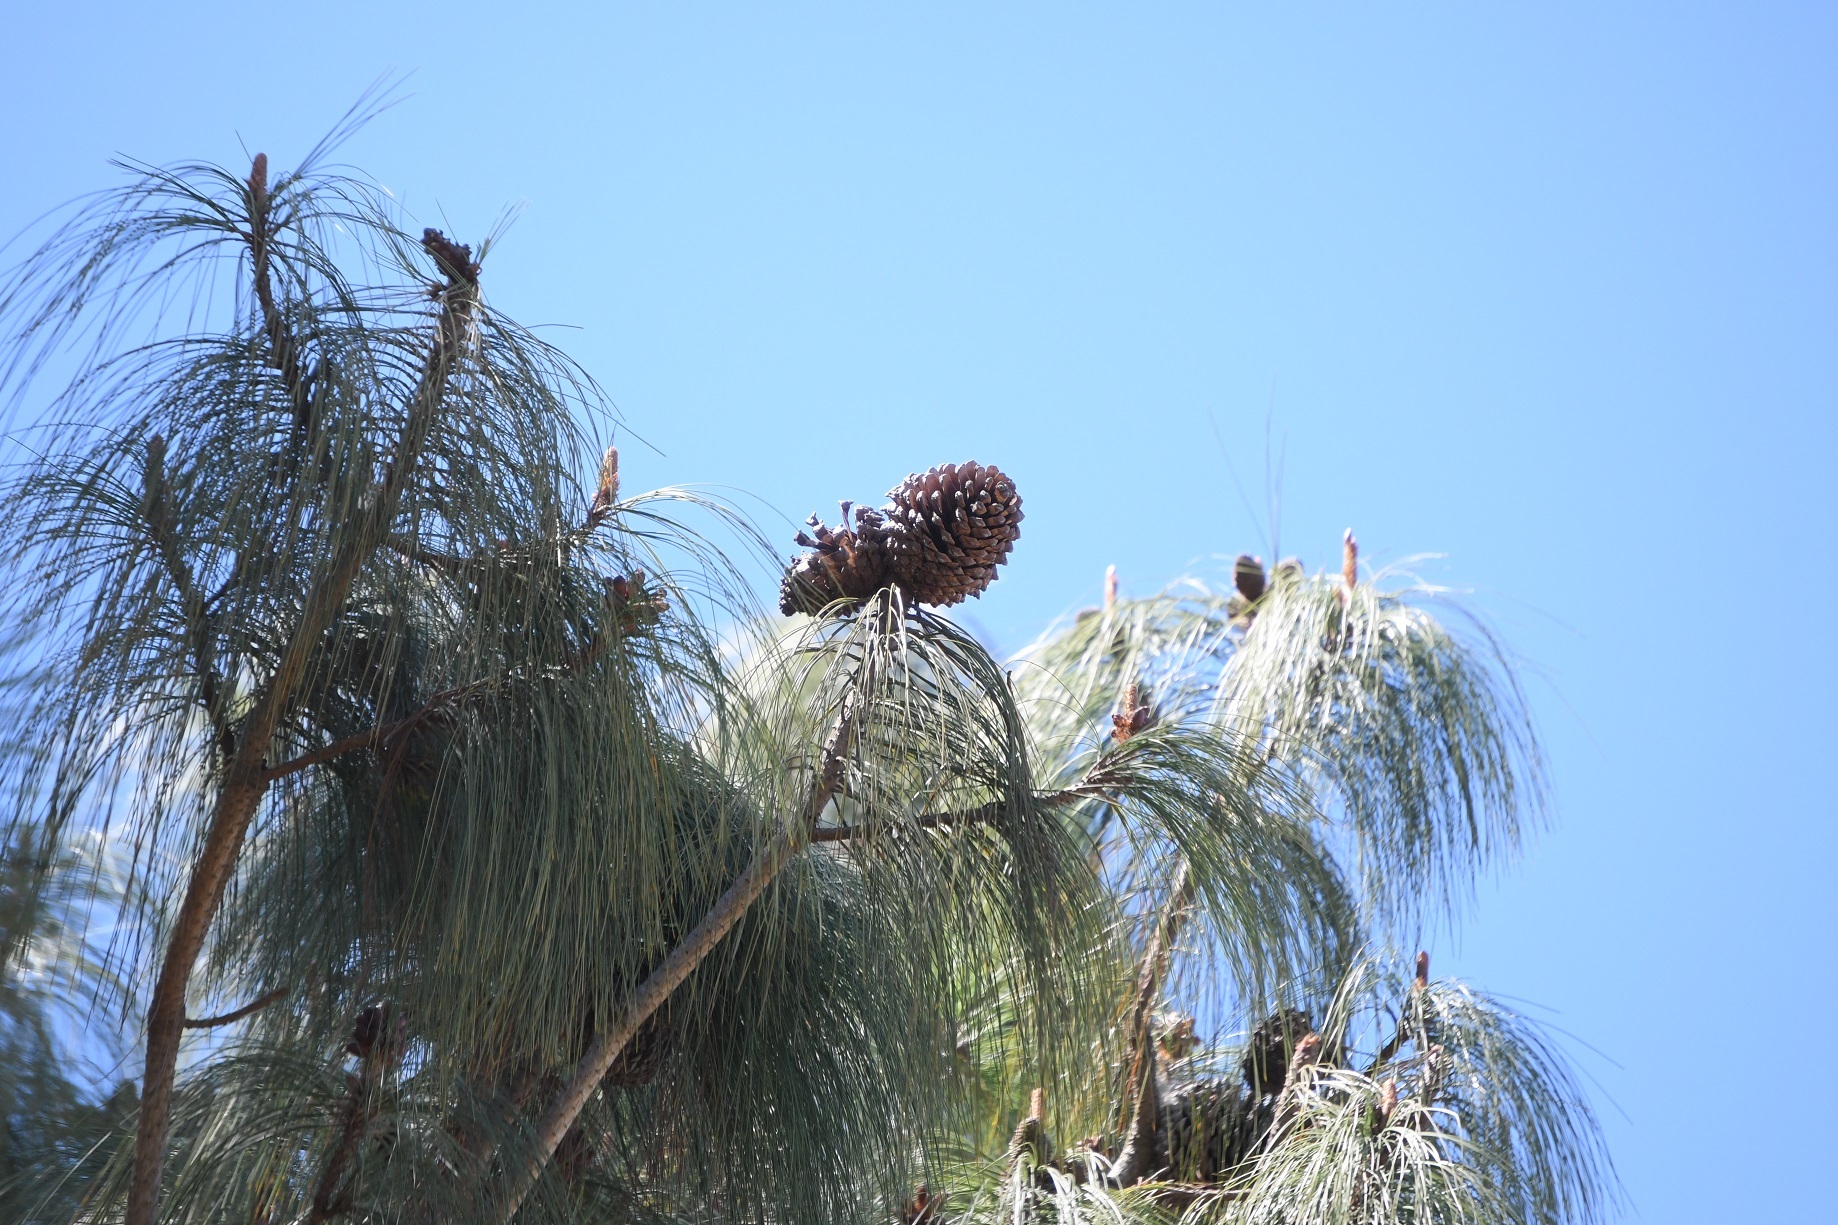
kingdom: Plantae
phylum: Tracheophyta
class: Pinopsida
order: Pinales
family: Pinaceae
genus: Pinus
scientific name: Pinus pseudostrobus
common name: False weymouth pine
